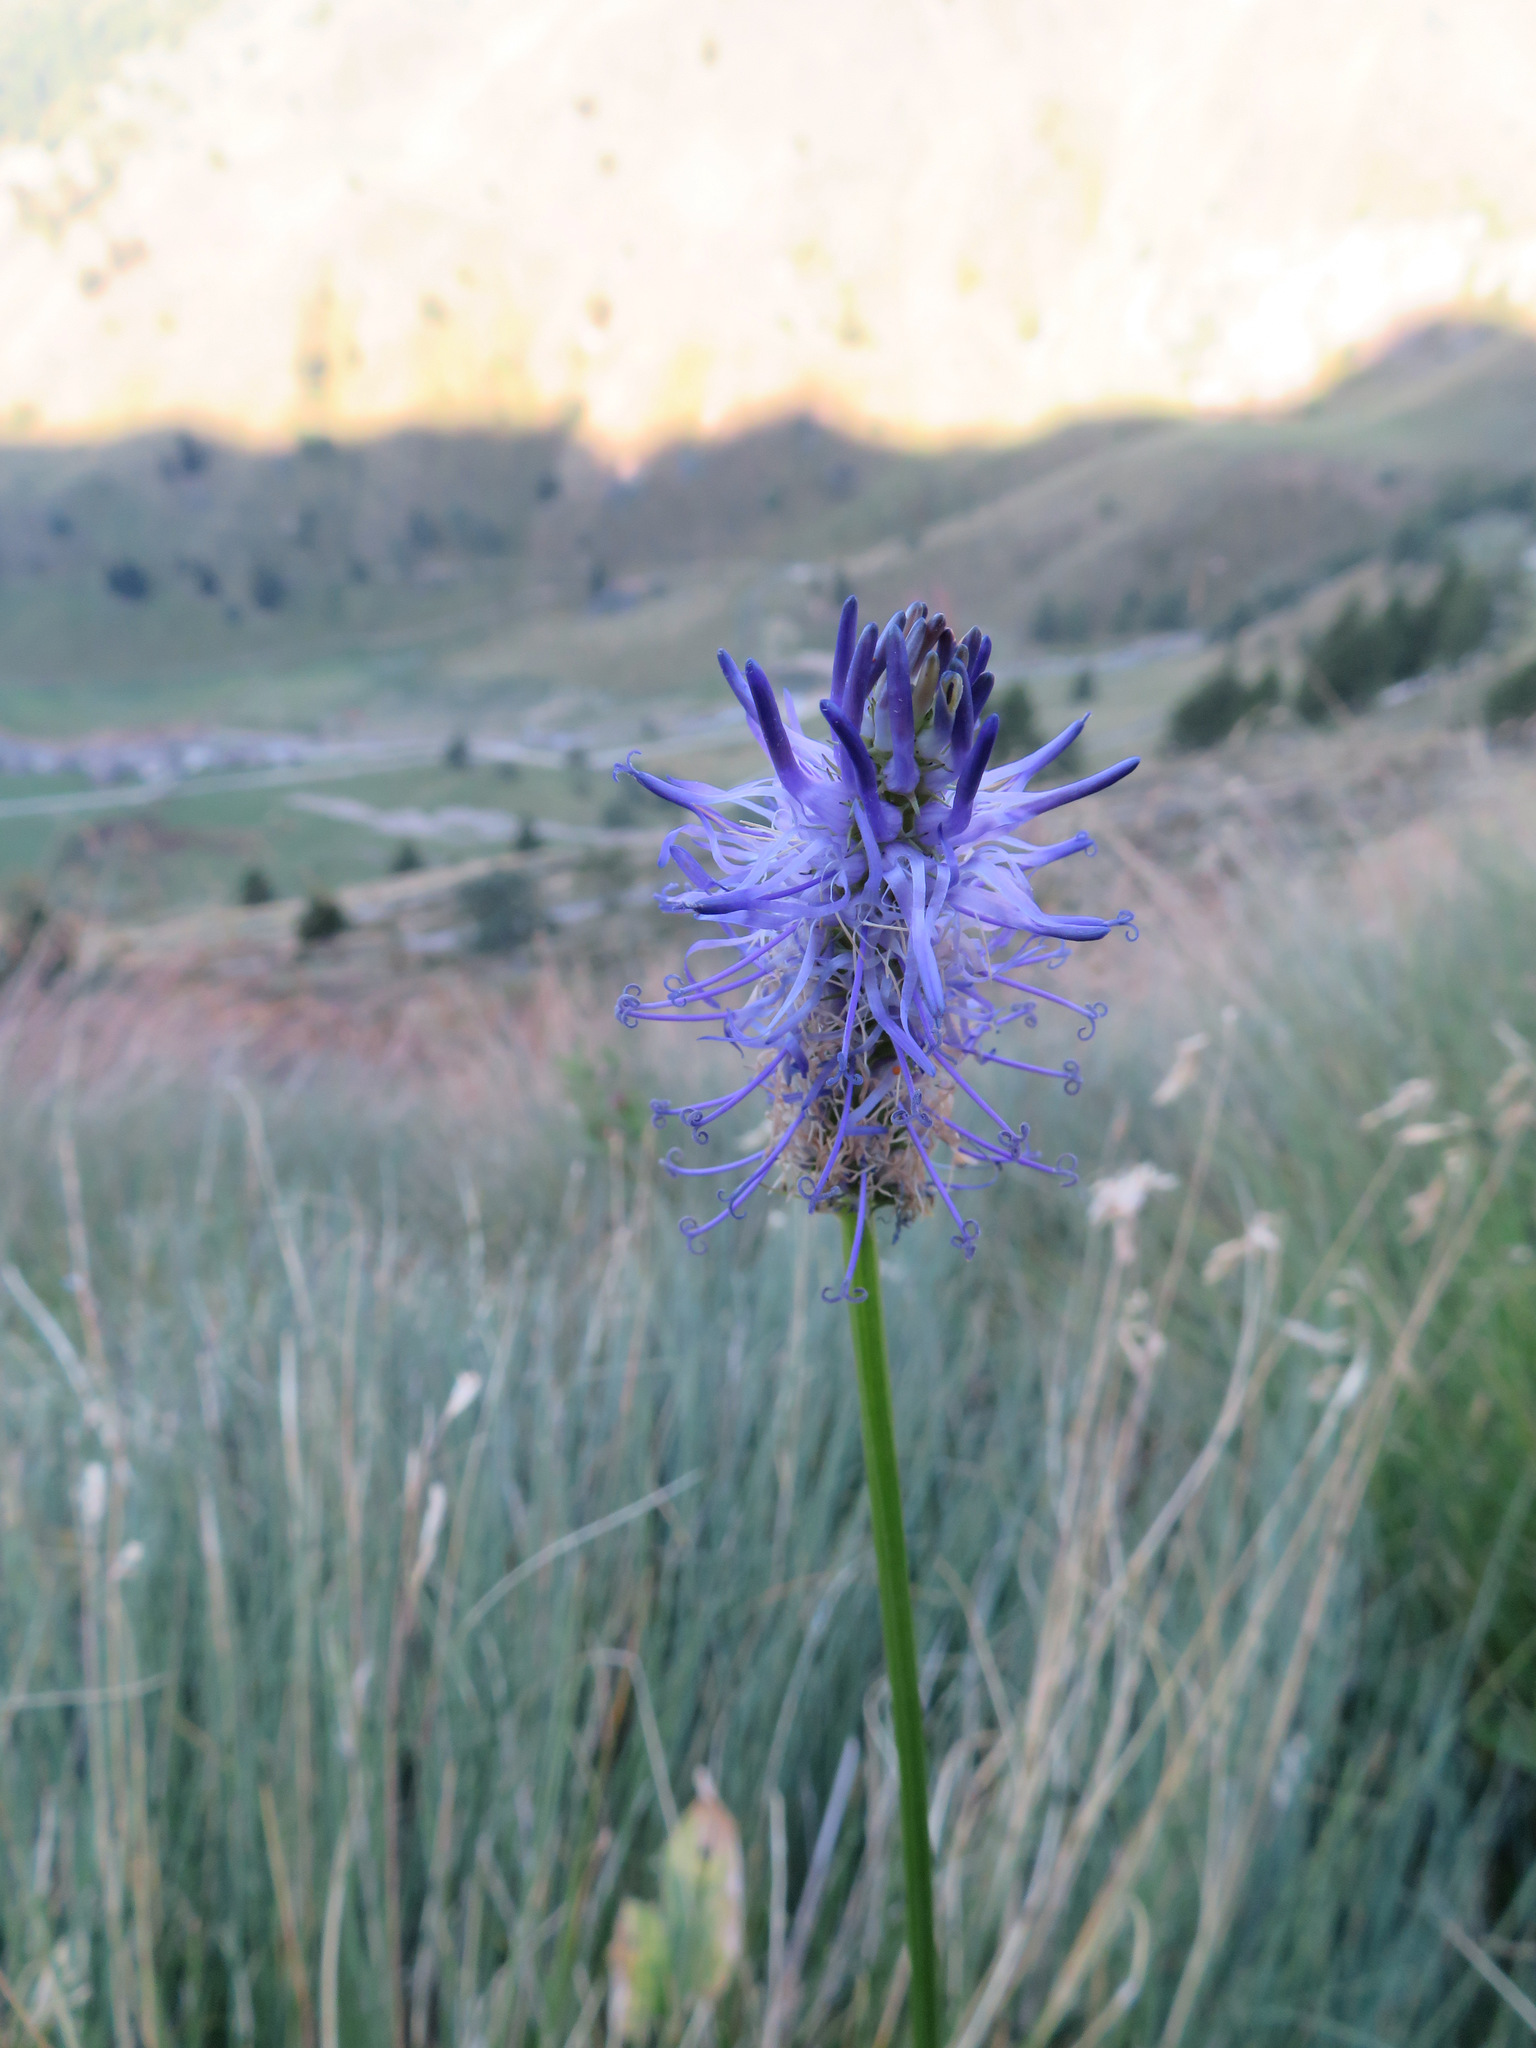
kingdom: Plantae
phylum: Tracheophyta
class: Magnoliopsida
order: Asterales
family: Campanulaceae
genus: Phyteuma
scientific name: Phyteuma betonicifolium
